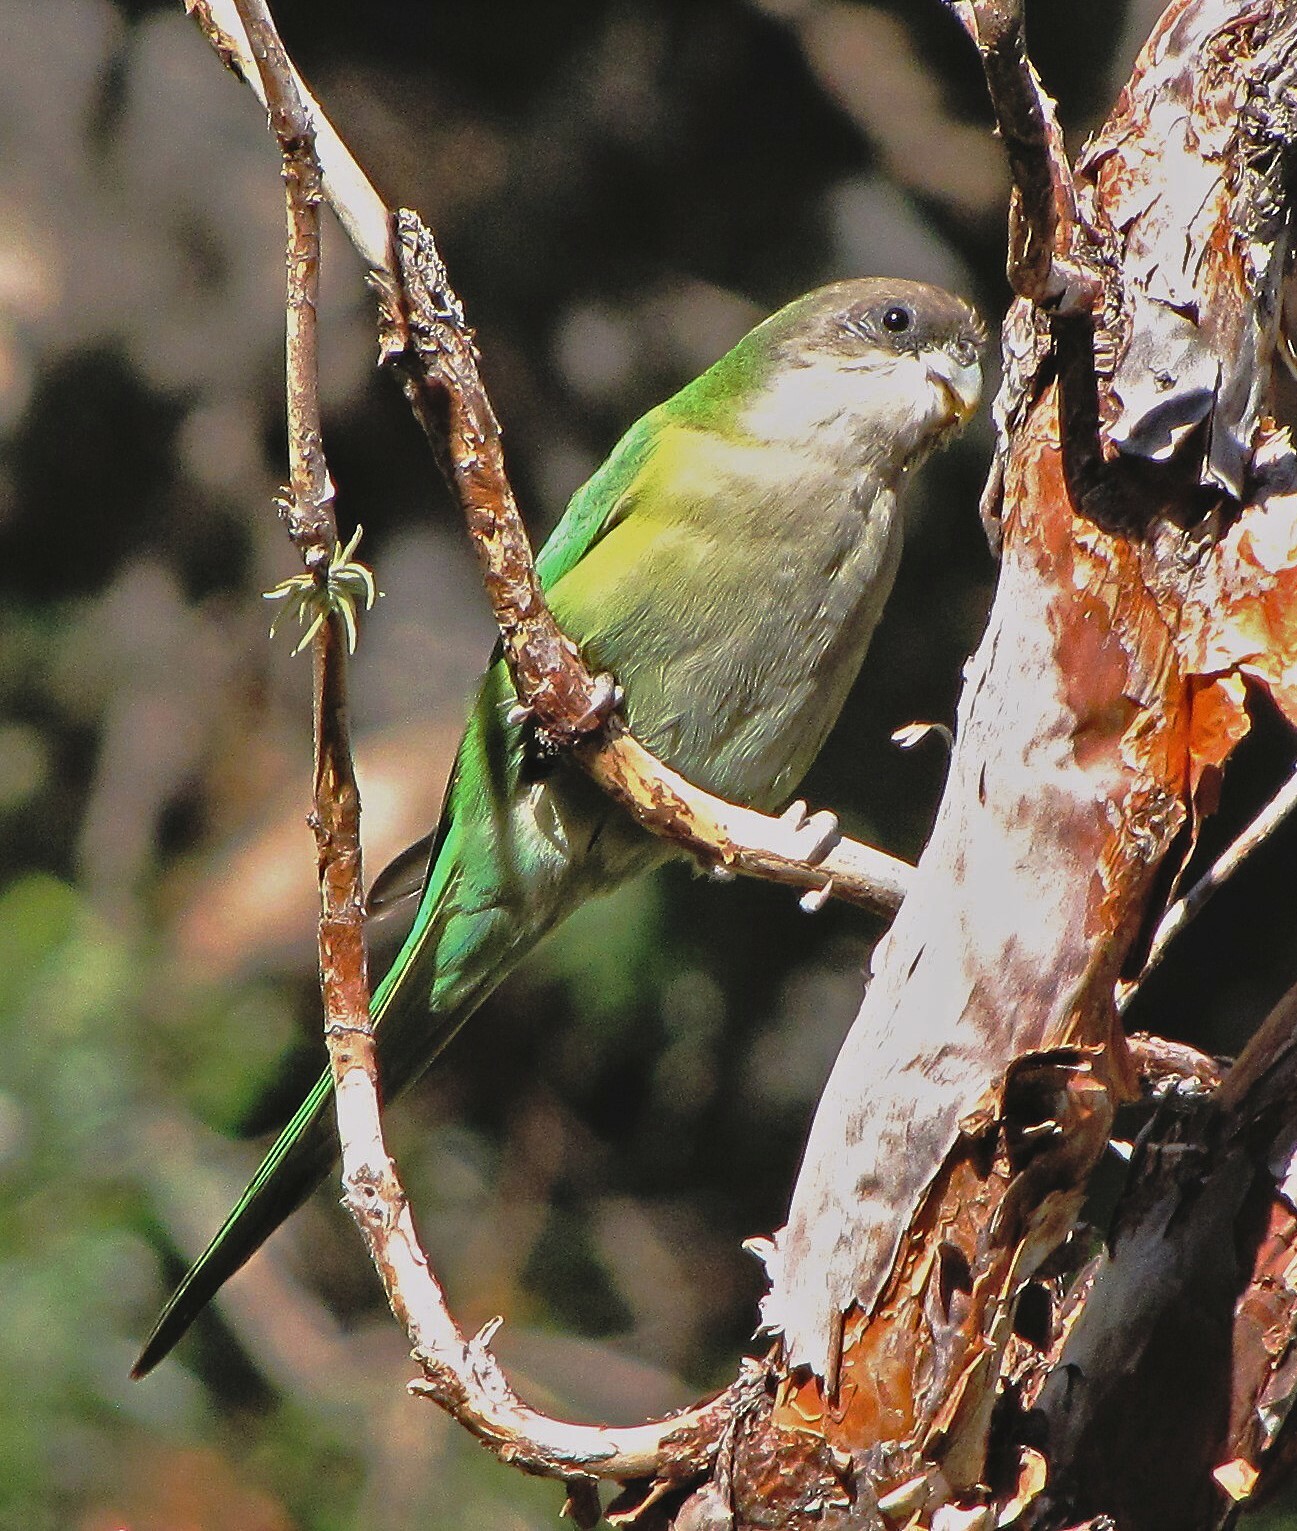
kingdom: Animalia
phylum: Chordata
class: Aves
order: Psittaciformes
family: Psittacidae
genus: Psilopsiagon
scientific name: Psilopsiagon aymara
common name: Grey-hooded parakeet
